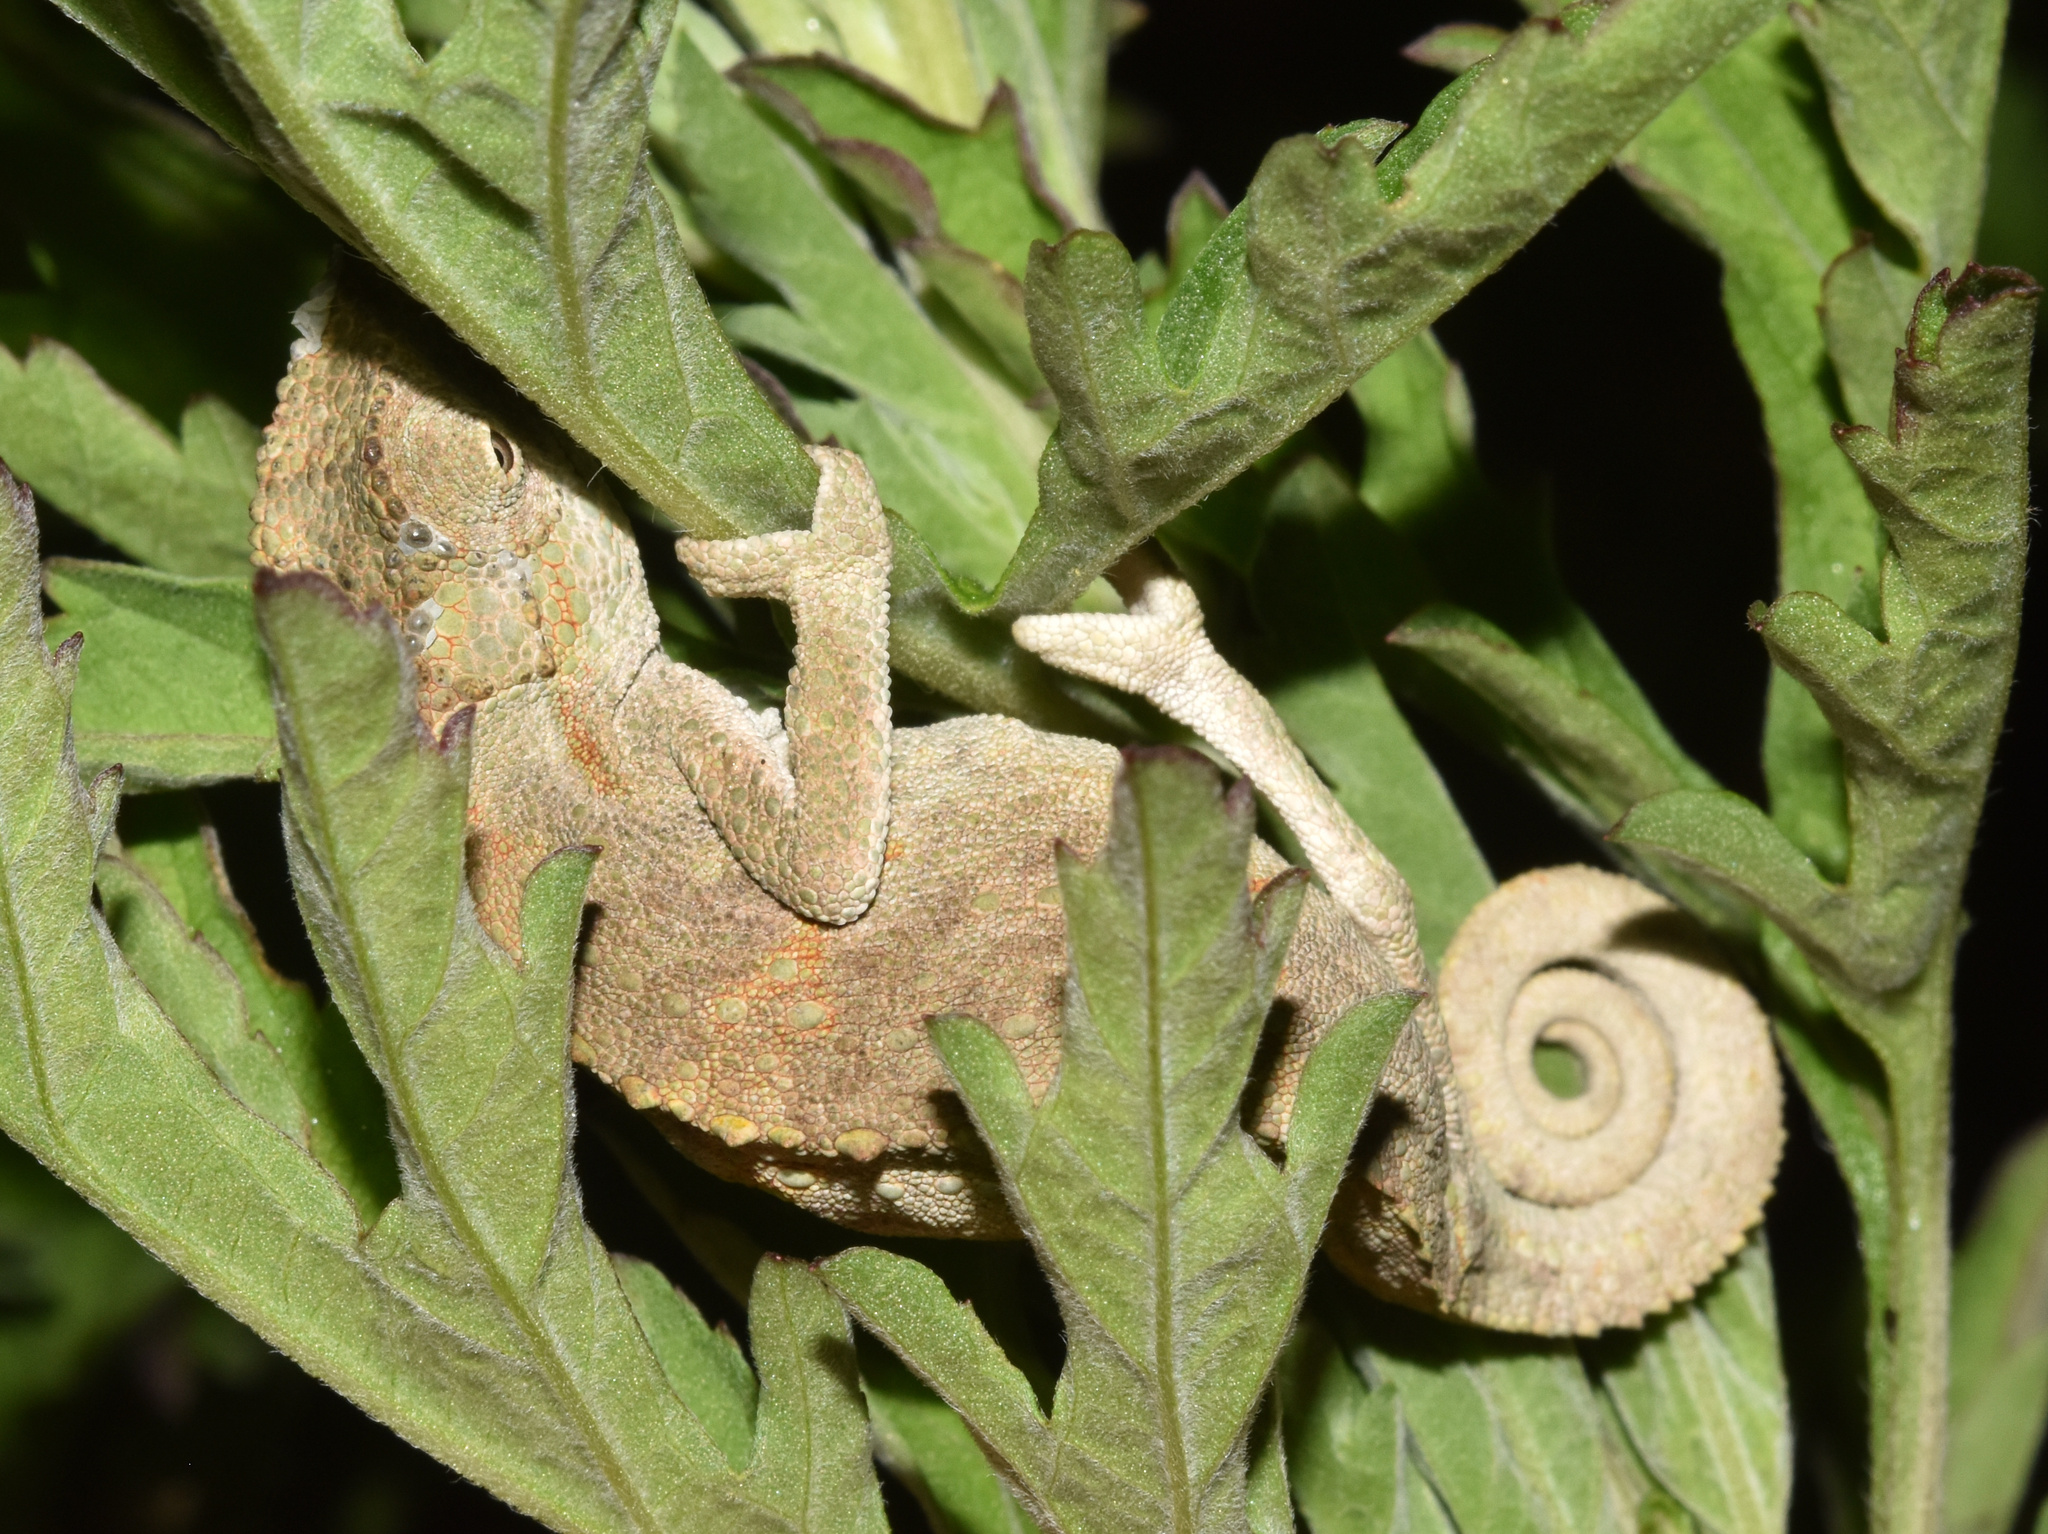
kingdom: Animalia
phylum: Chordata
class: Squamata
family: Chamaeleonidae
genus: Bradypodion
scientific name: Bradypodion melanocephalum
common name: Black-headed dwarf chameleon
